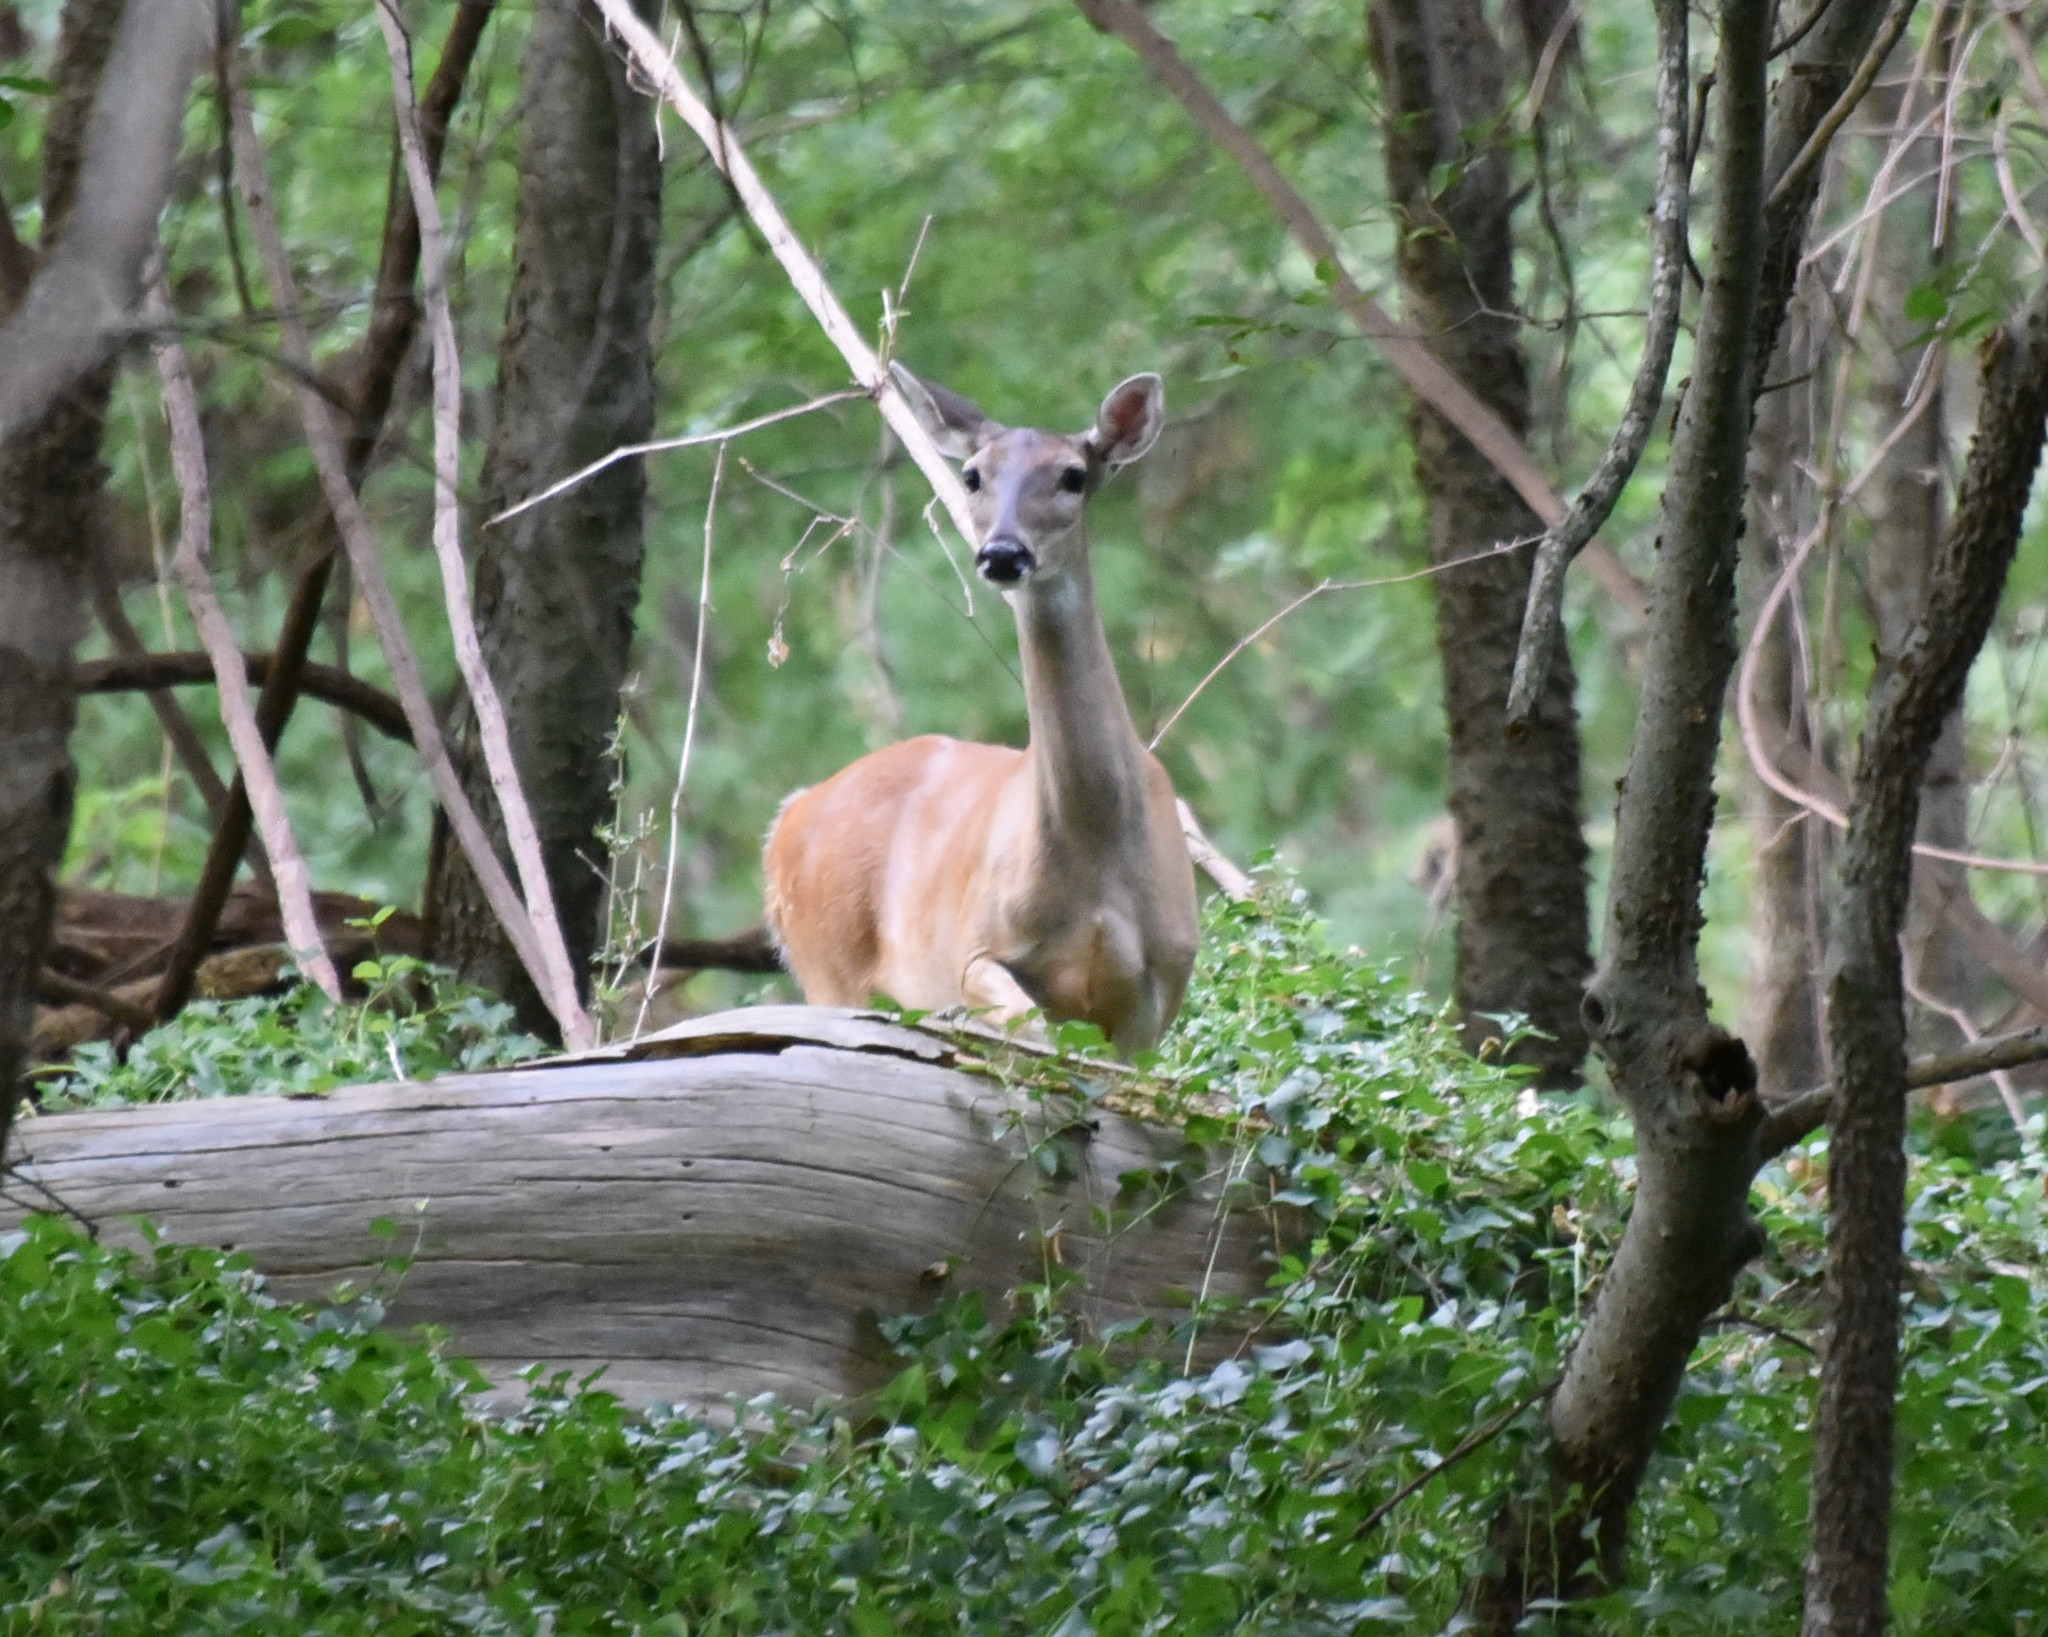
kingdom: Animalia
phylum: Chordata
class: Mammalia
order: Artiodactyla
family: Cervidae
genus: Odocoileus
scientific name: Odocoileus virginianus
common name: White-tailed deer
